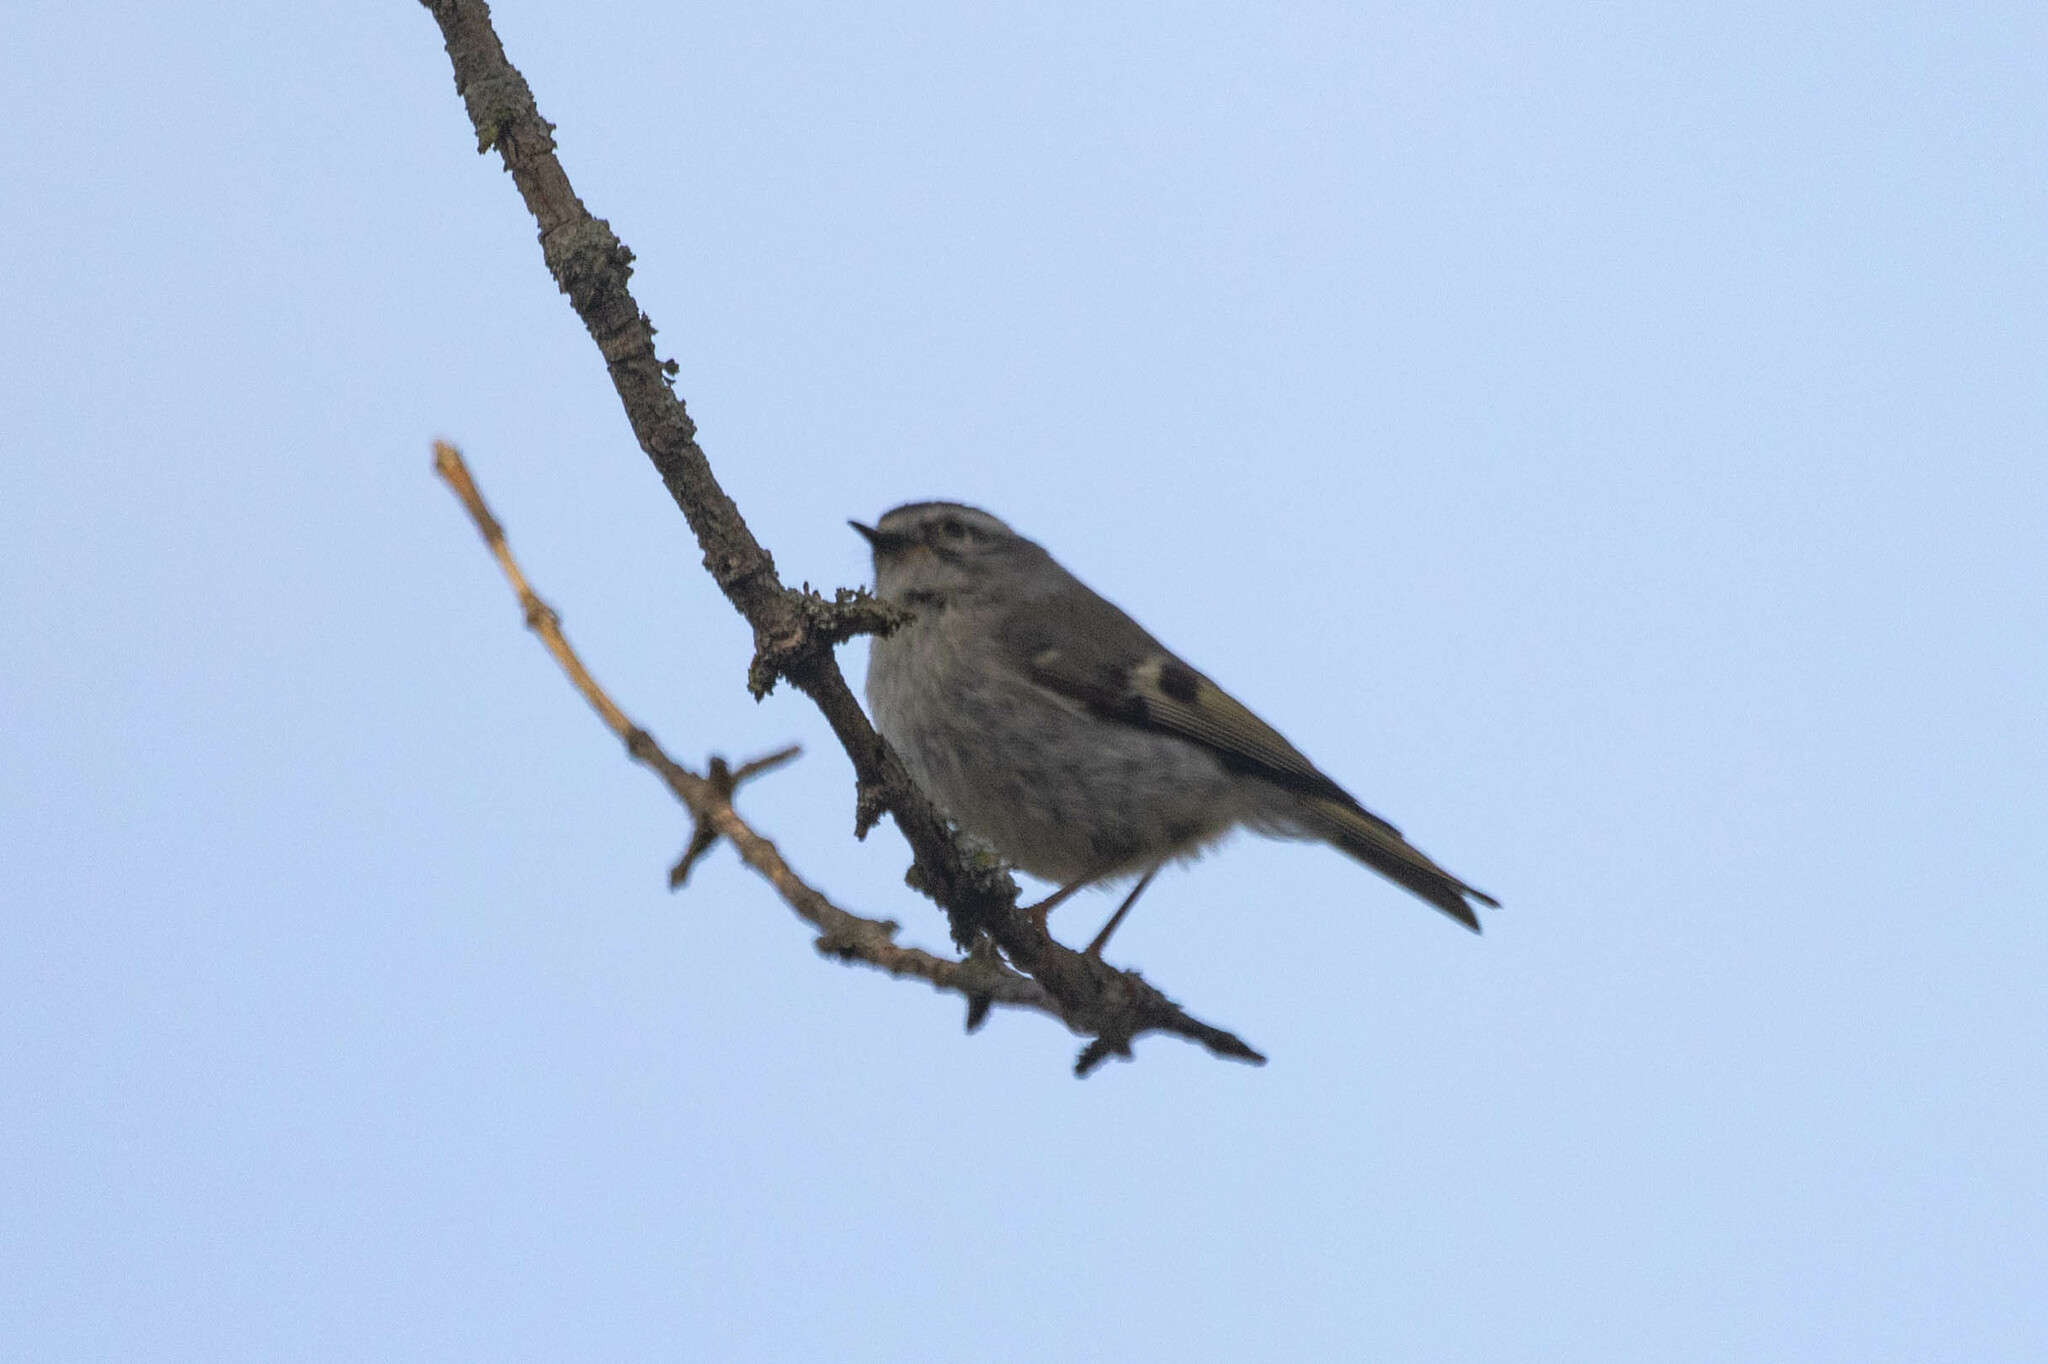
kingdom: Animalia
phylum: Chordata
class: Aves
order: Passeriformes
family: Regulidae
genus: Regulus
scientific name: Regulus satrapa
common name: Golden-crowned kinglet
